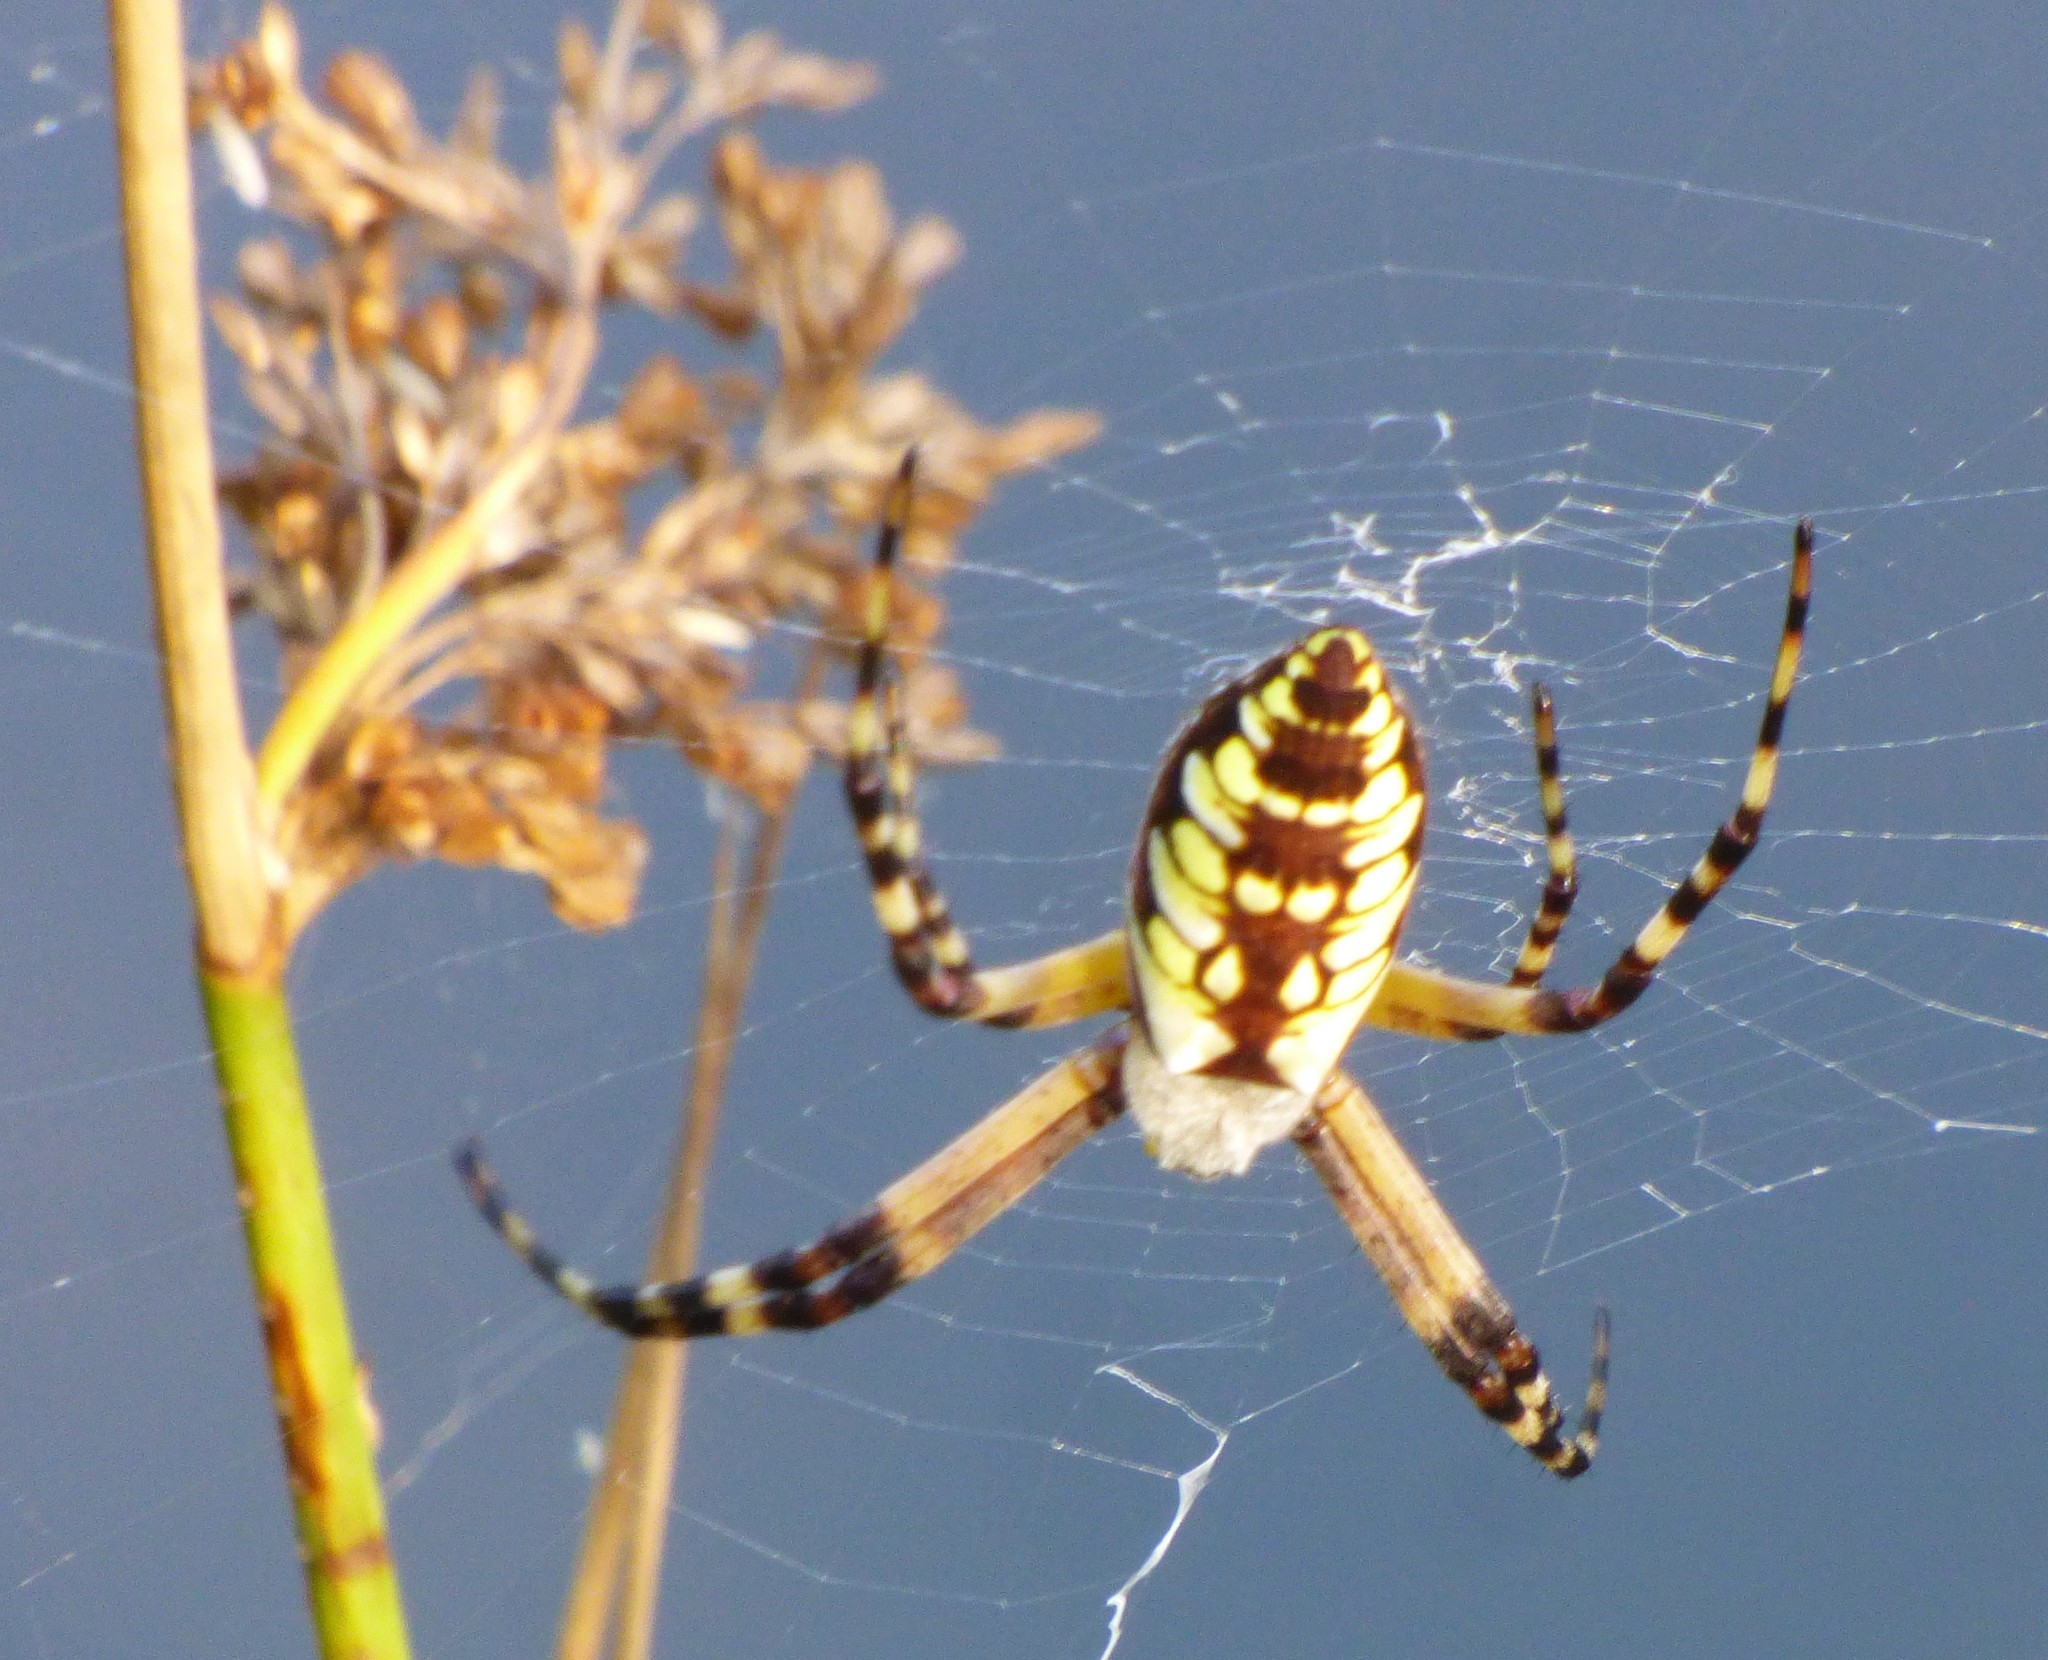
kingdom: Animalia
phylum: Arthropoda
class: Arachnida
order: Araneae
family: Araneidae
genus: Argiope
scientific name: Argiope aurantia
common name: Orb weavers
